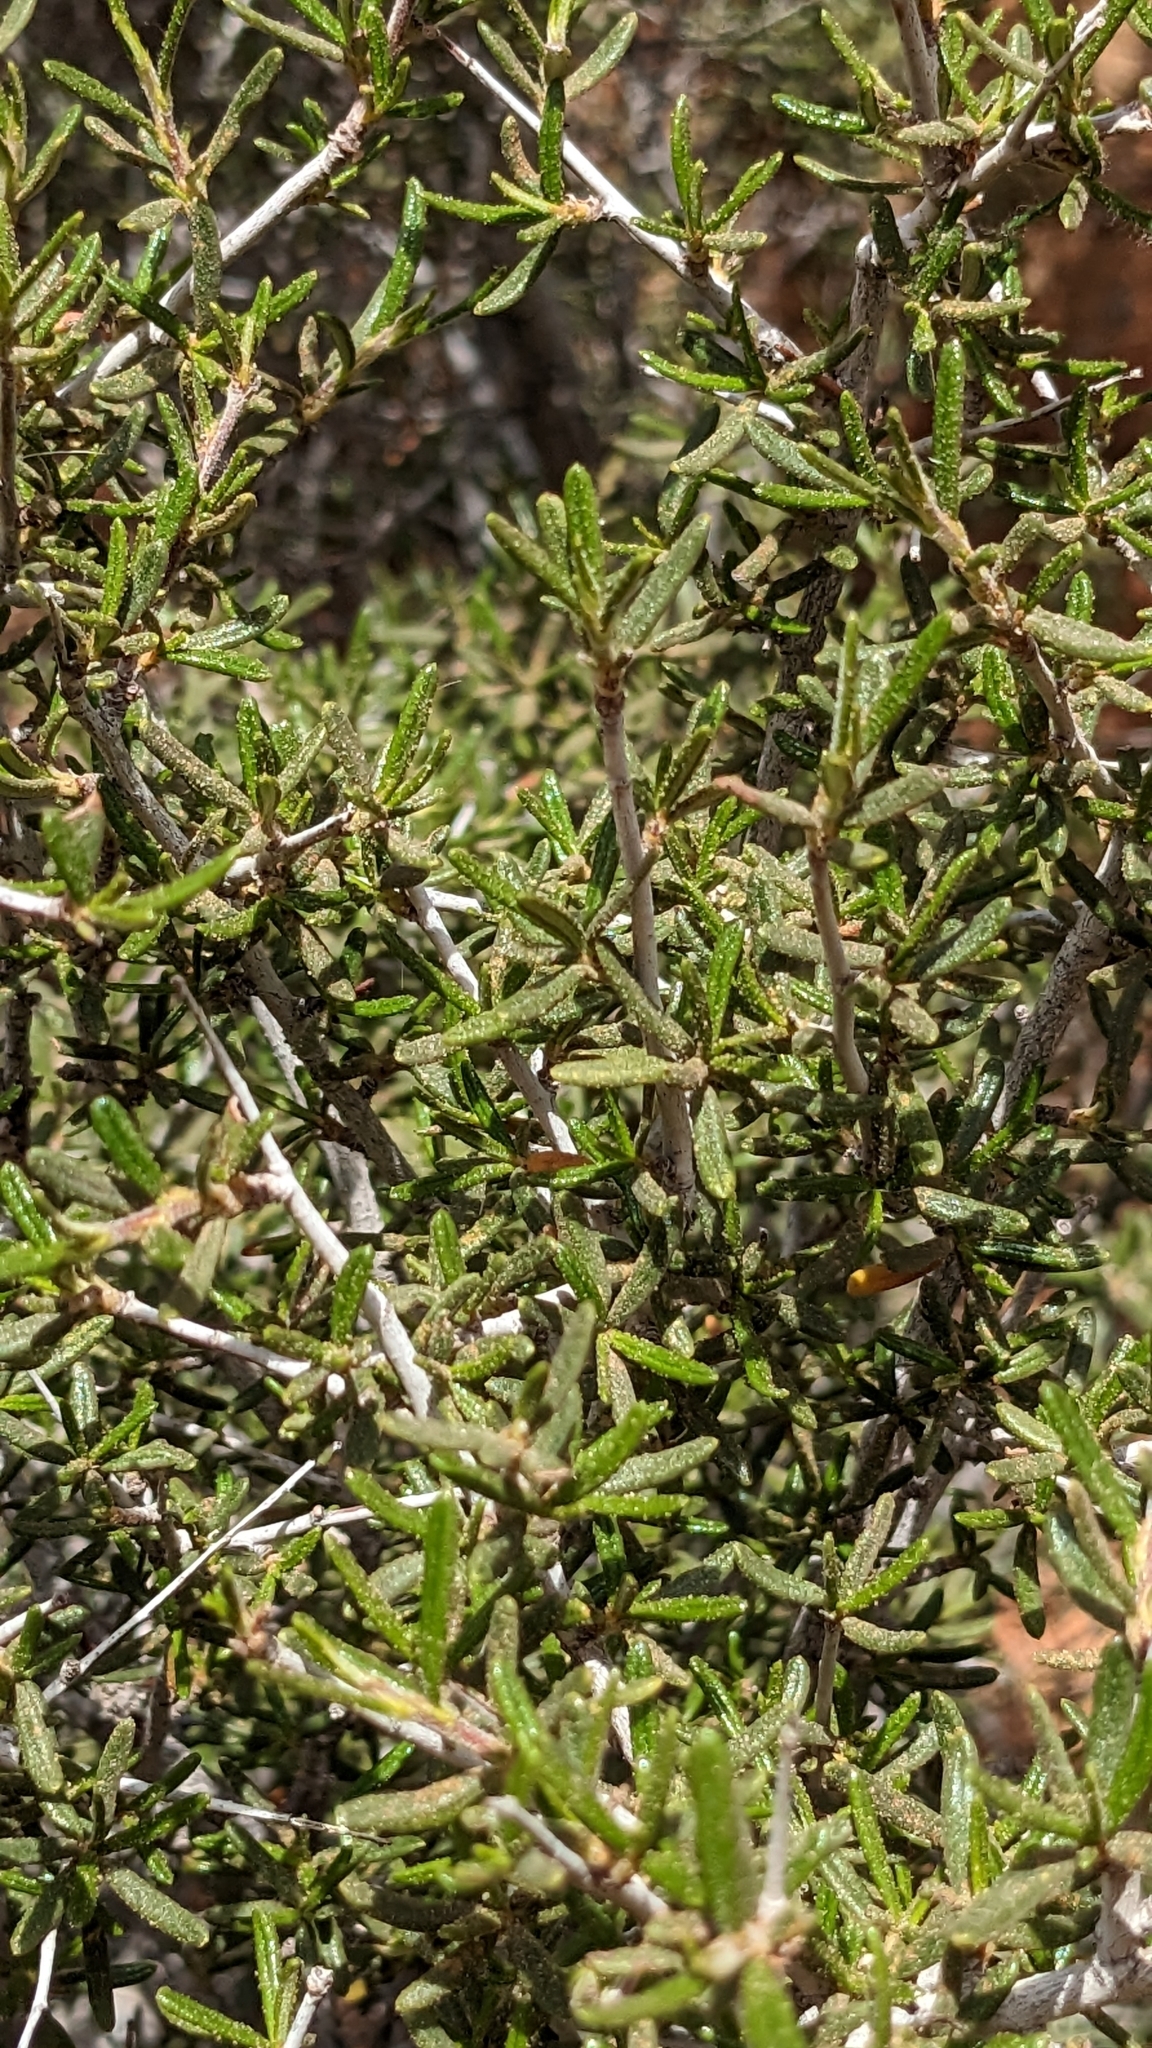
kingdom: Plantae
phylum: Tracheophyta
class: Magnoliopsida
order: Rosales
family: Rosaceae
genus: Cercocarpus
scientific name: Cercocarpus intricatus
